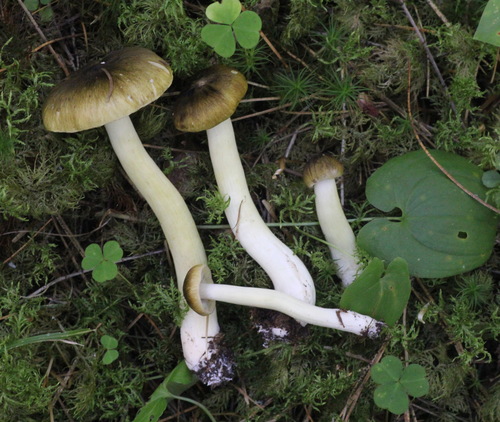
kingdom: Fungi
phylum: Basidiomycota
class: Agaricomycetes
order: Agaricales
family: Tricholomataceae
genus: Tricholoma
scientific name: Tricholoma viridilutescens
